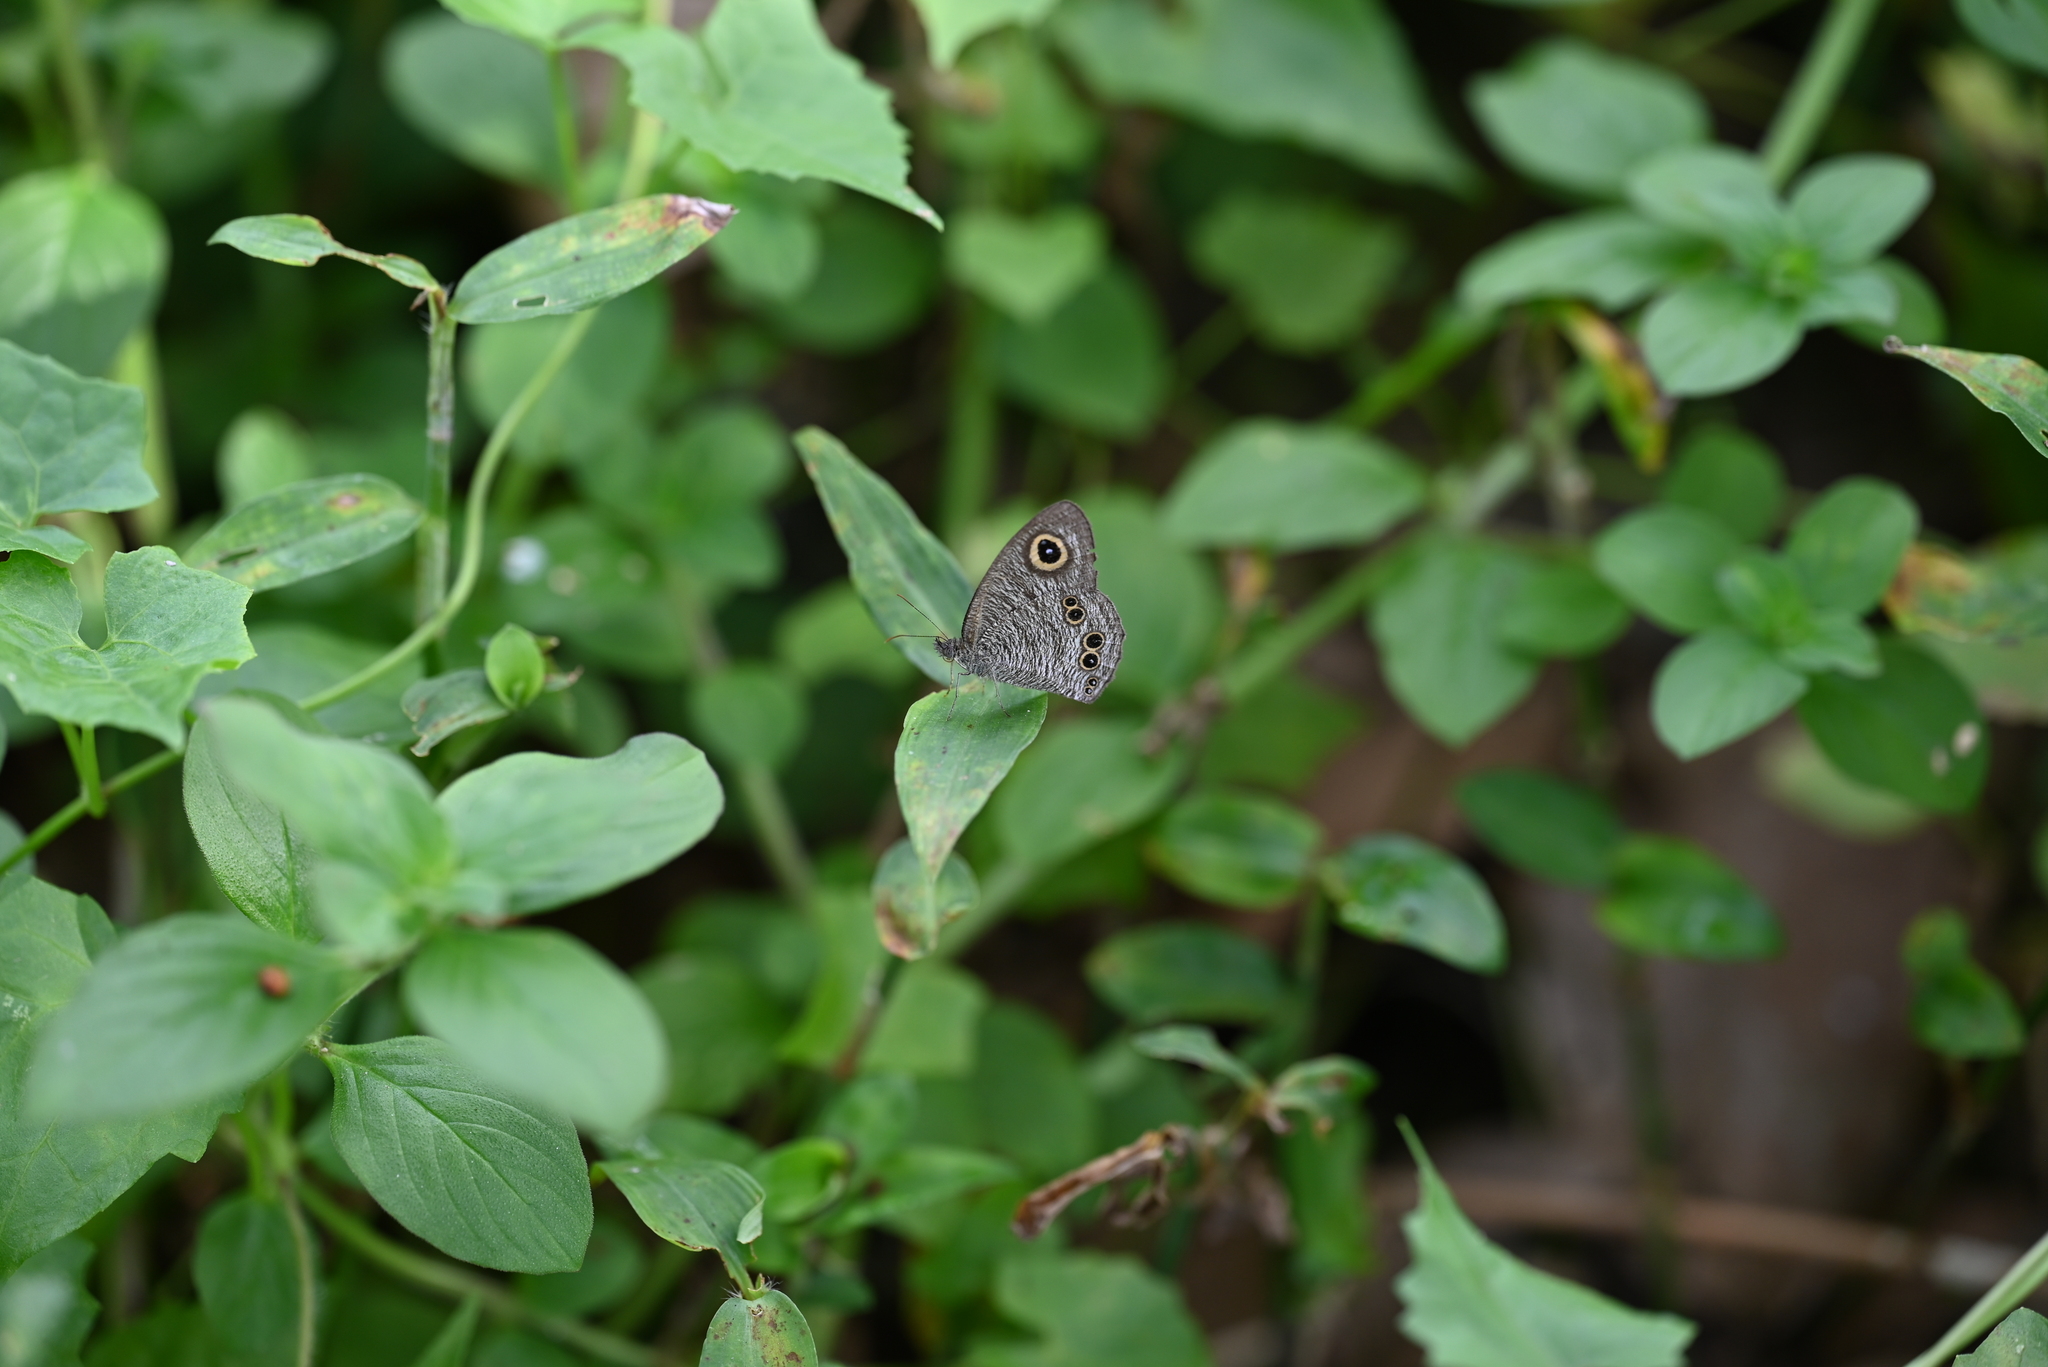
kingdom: Animalia
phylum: Arthropoda
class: Insecta
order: Lepidoptera
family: Nymphalidae
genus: Ypthima
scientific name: Ypthima baldus
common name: Common five-ring
